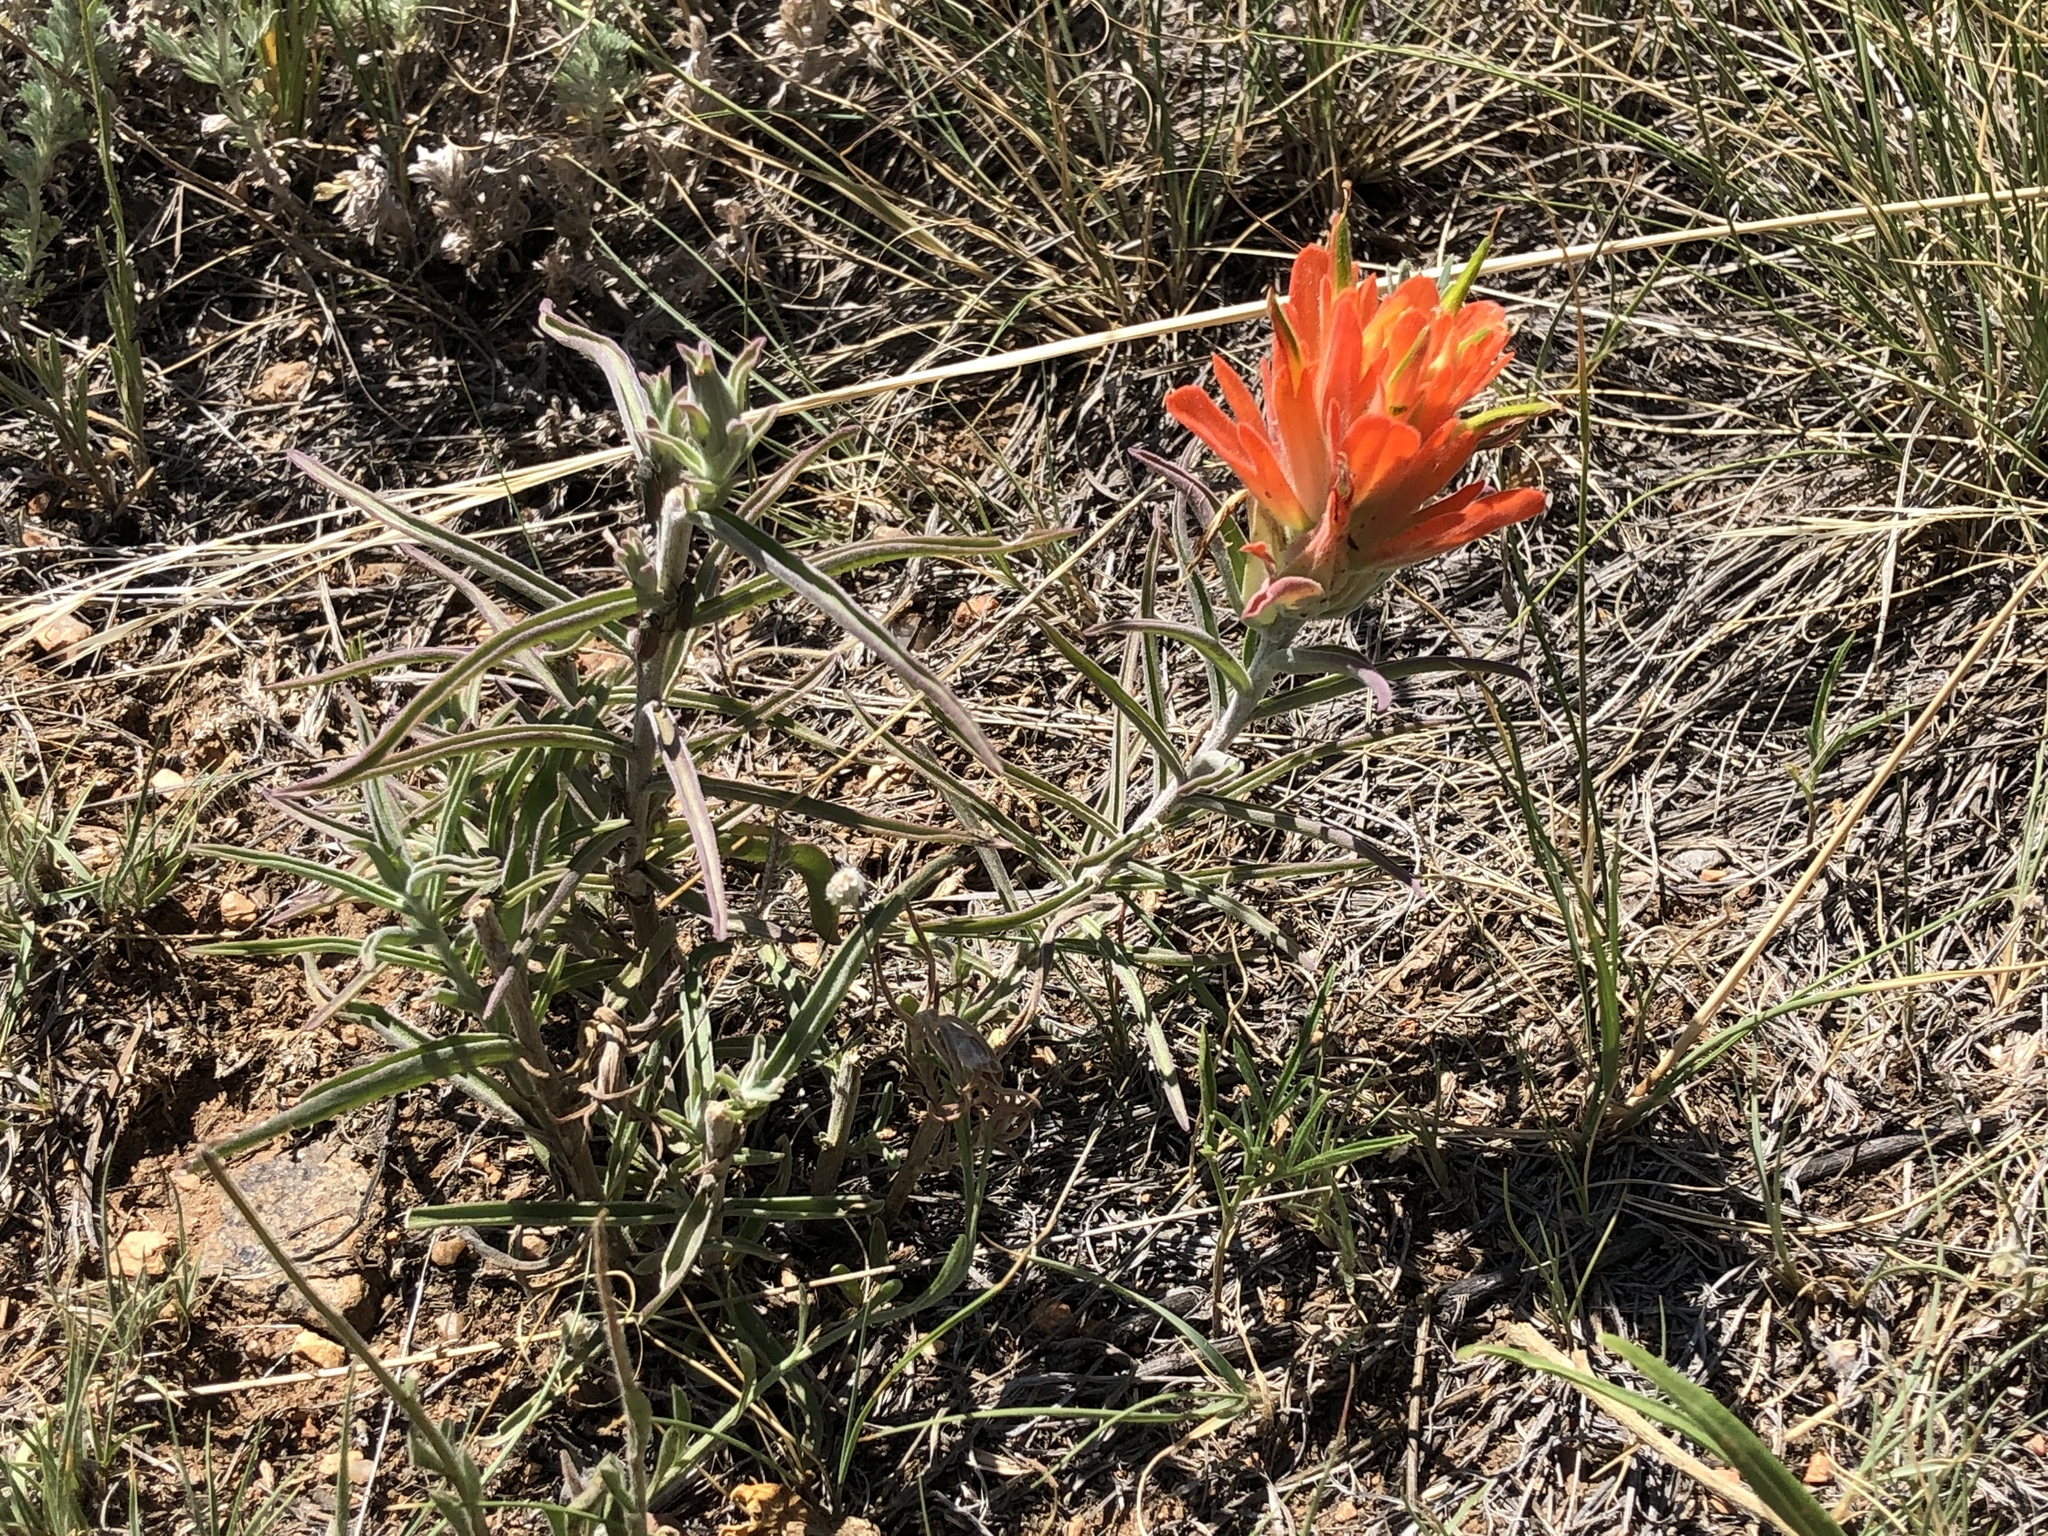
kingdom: Plantae
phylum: Tracheophyta
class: Magnoliopsida
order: Lamiales
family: Orobanchaceae
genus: Castilleja
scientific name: Castilleja integra
